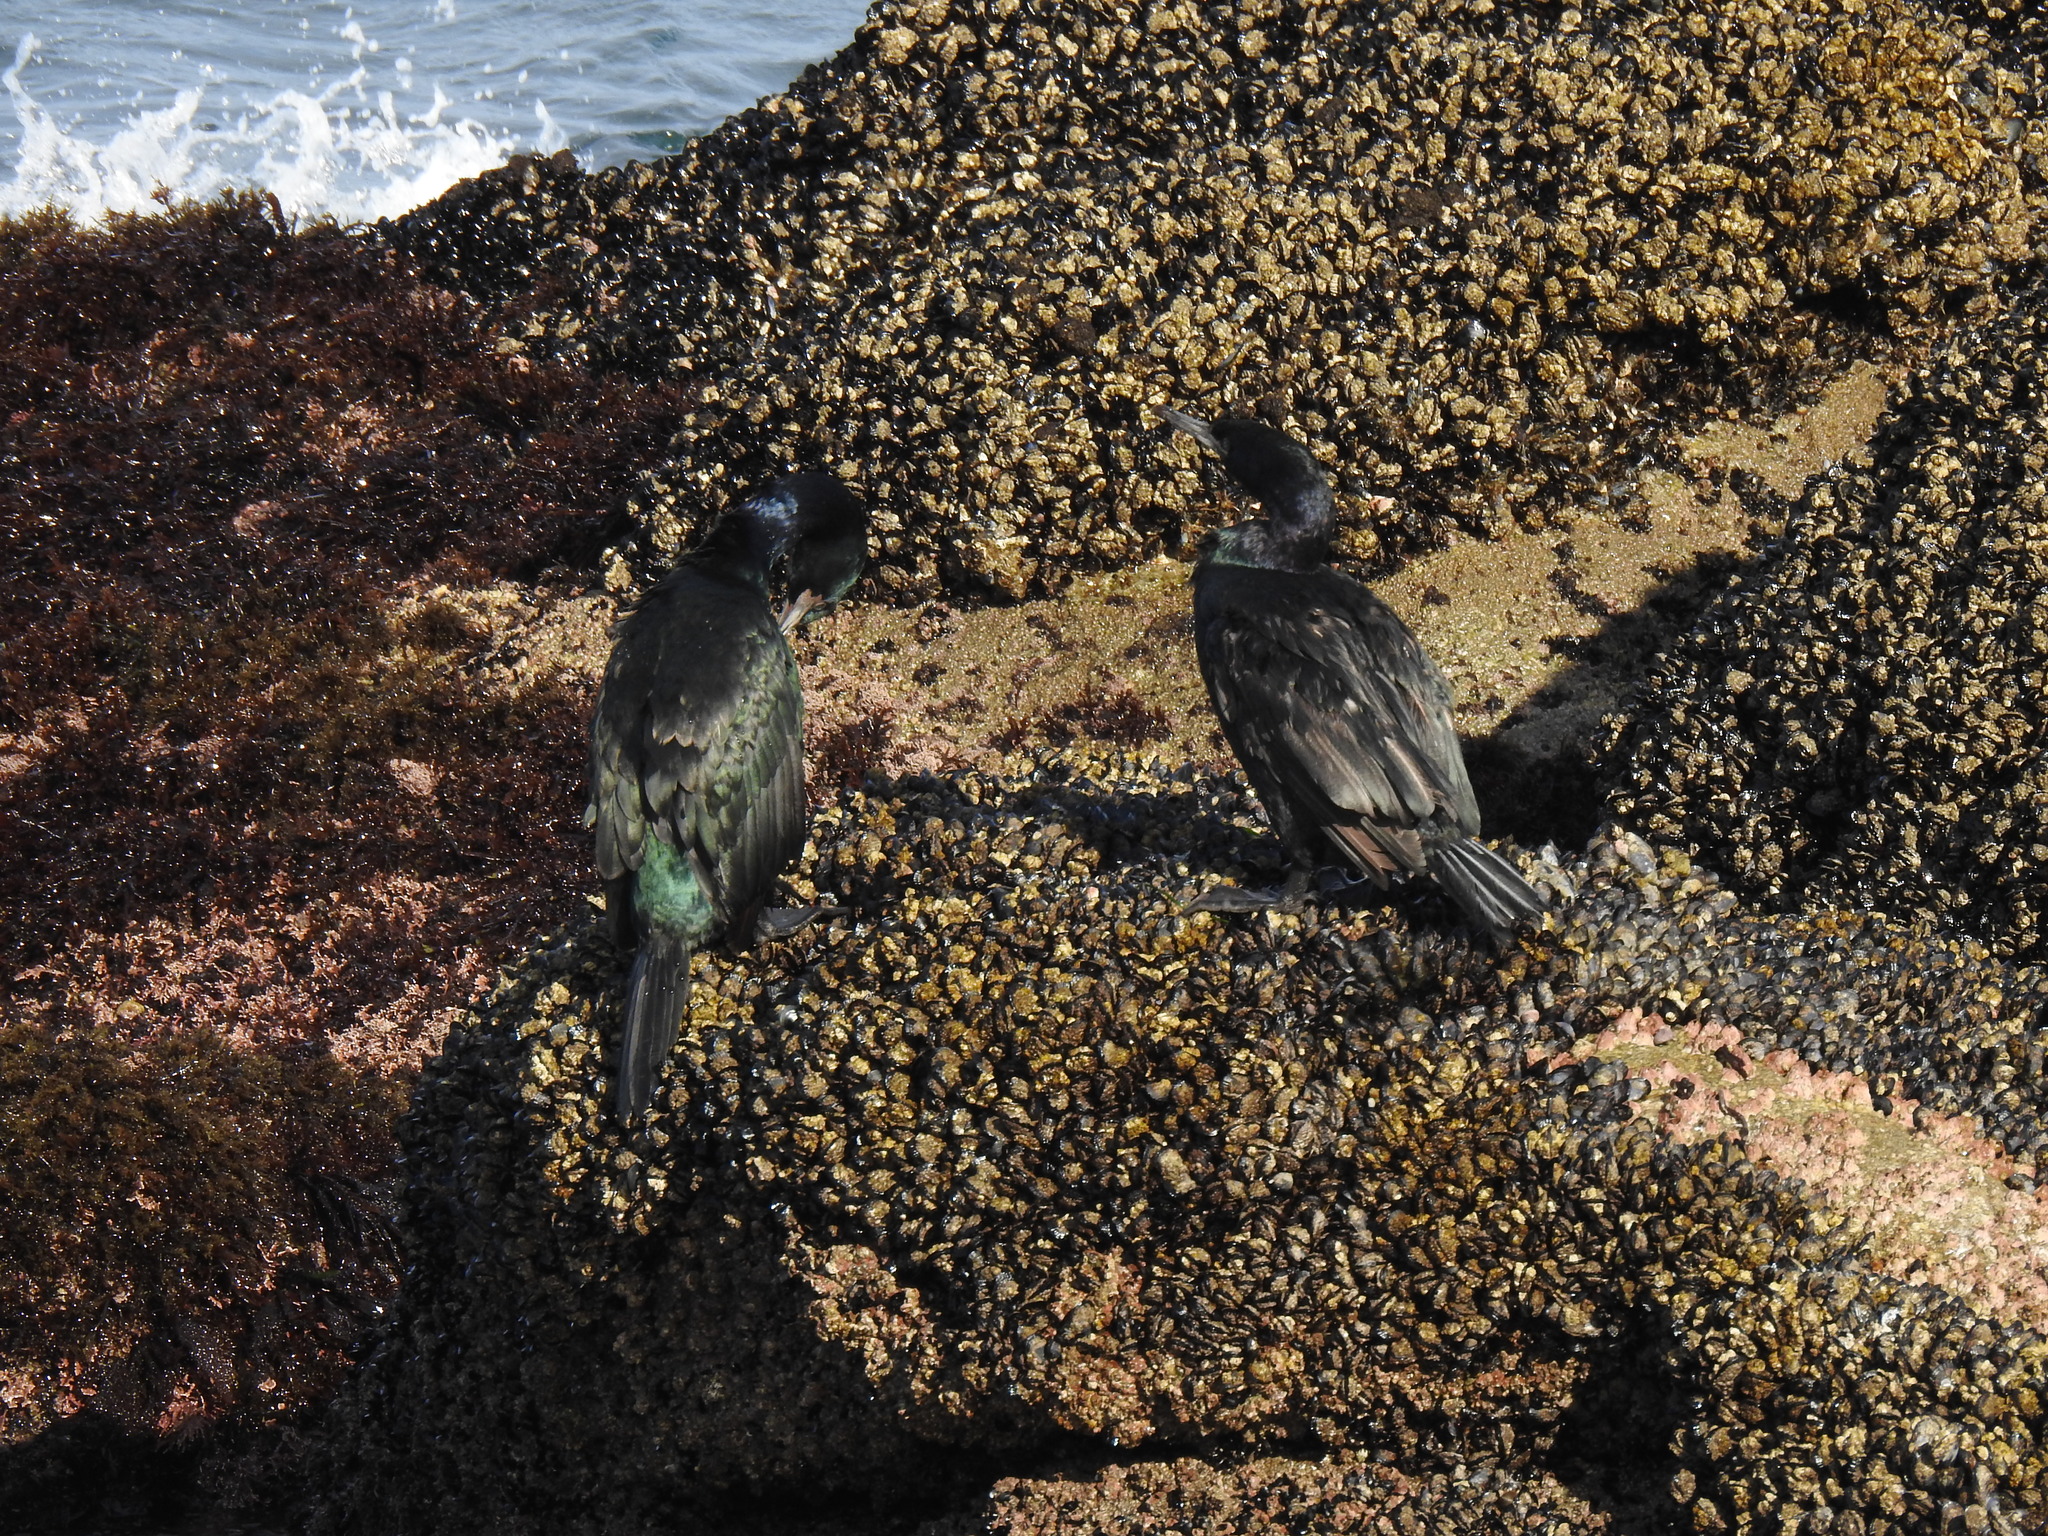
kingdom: Animalia
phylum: Chordata
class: Aves
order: Suliformes
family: Phalacrocoracidae
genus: Phalacrocorax
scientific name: Phalacrocorax pelagicus
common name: Pelagic cormorant
